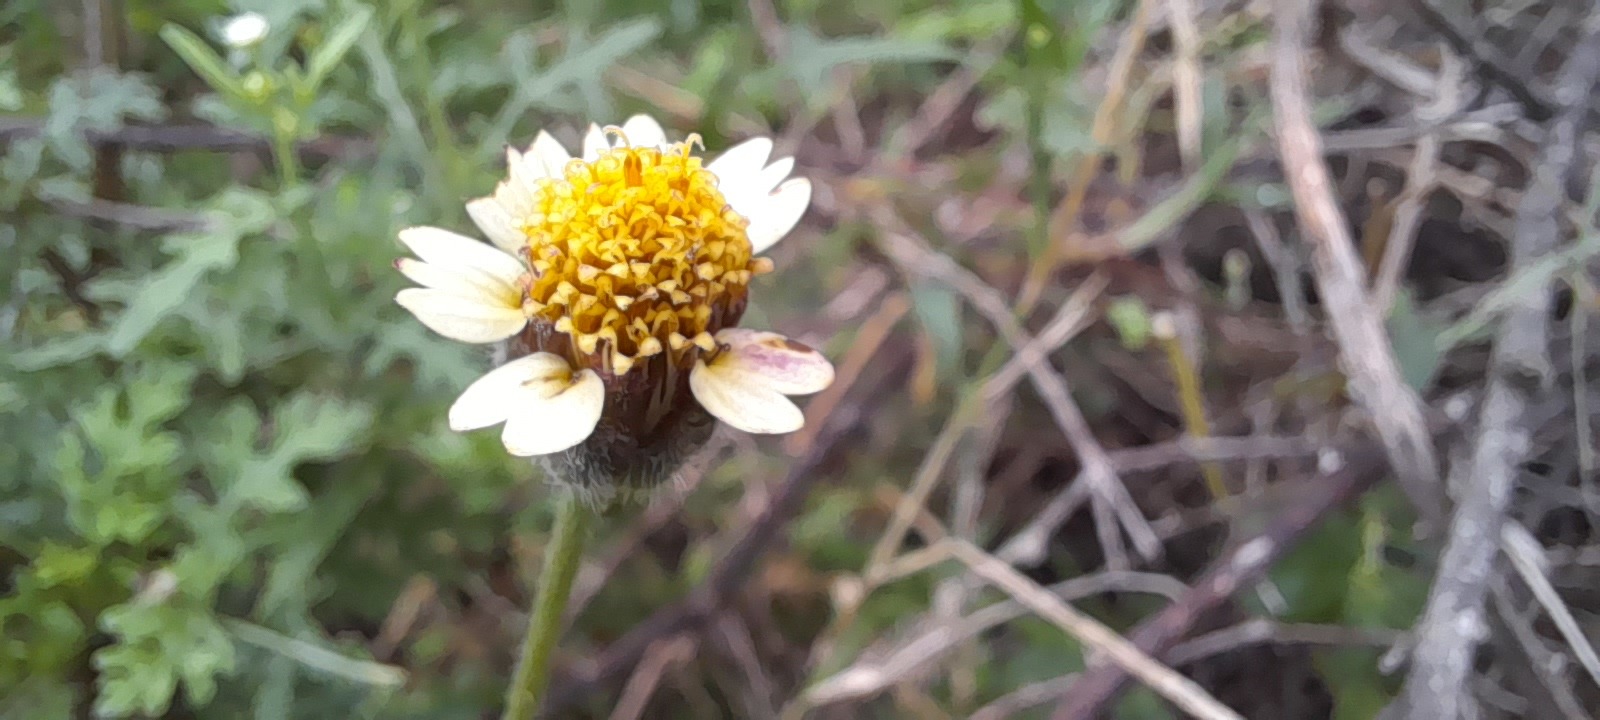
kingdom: Plantae
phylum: Tracheophyta
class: Magnoliopsida
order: Asterales
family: Asteraceae
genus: Tridax
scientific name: Tridax procumbens
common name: Coatbuttons
